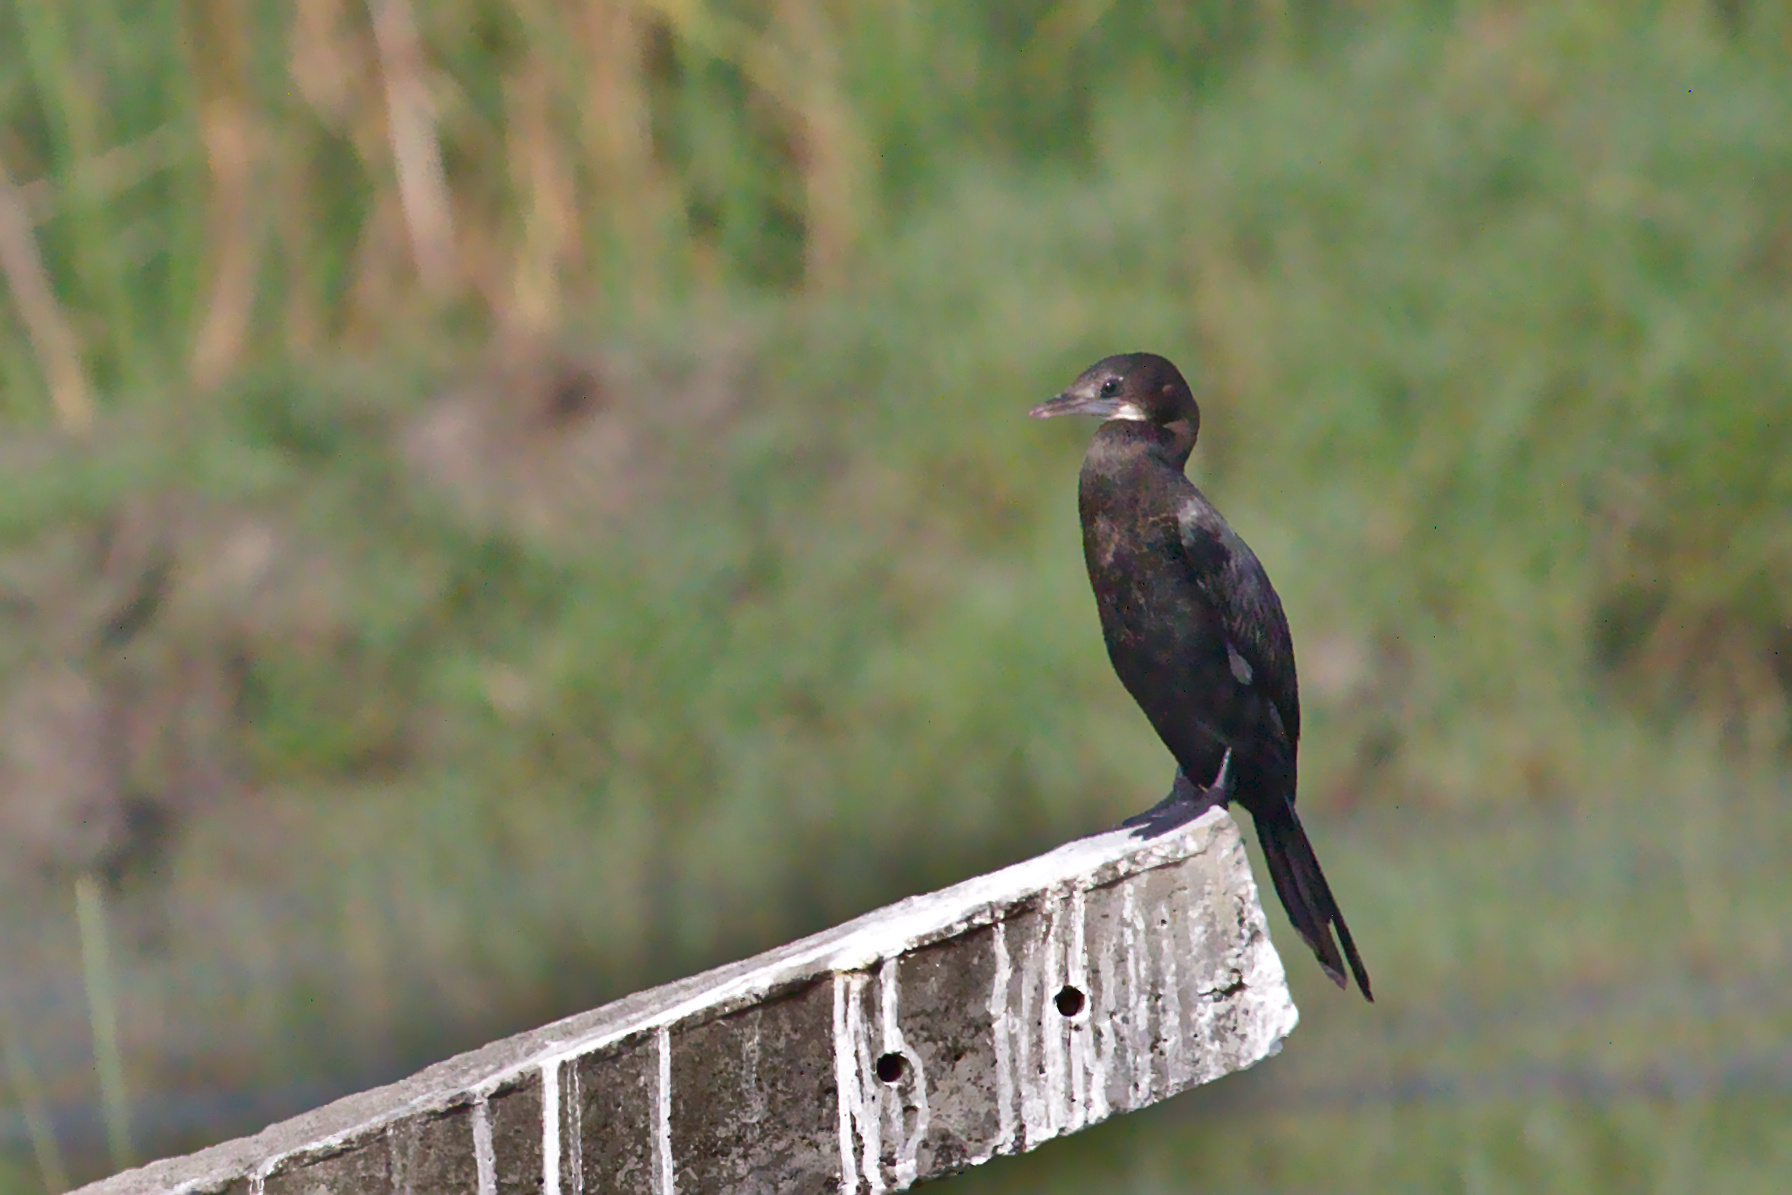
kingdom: Animalia
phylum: Chordata
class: Aves
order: Suliformes
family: Phalacrocoracidae
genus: Microcarbo
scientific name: Microcarbo niger
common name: Little cormorant
